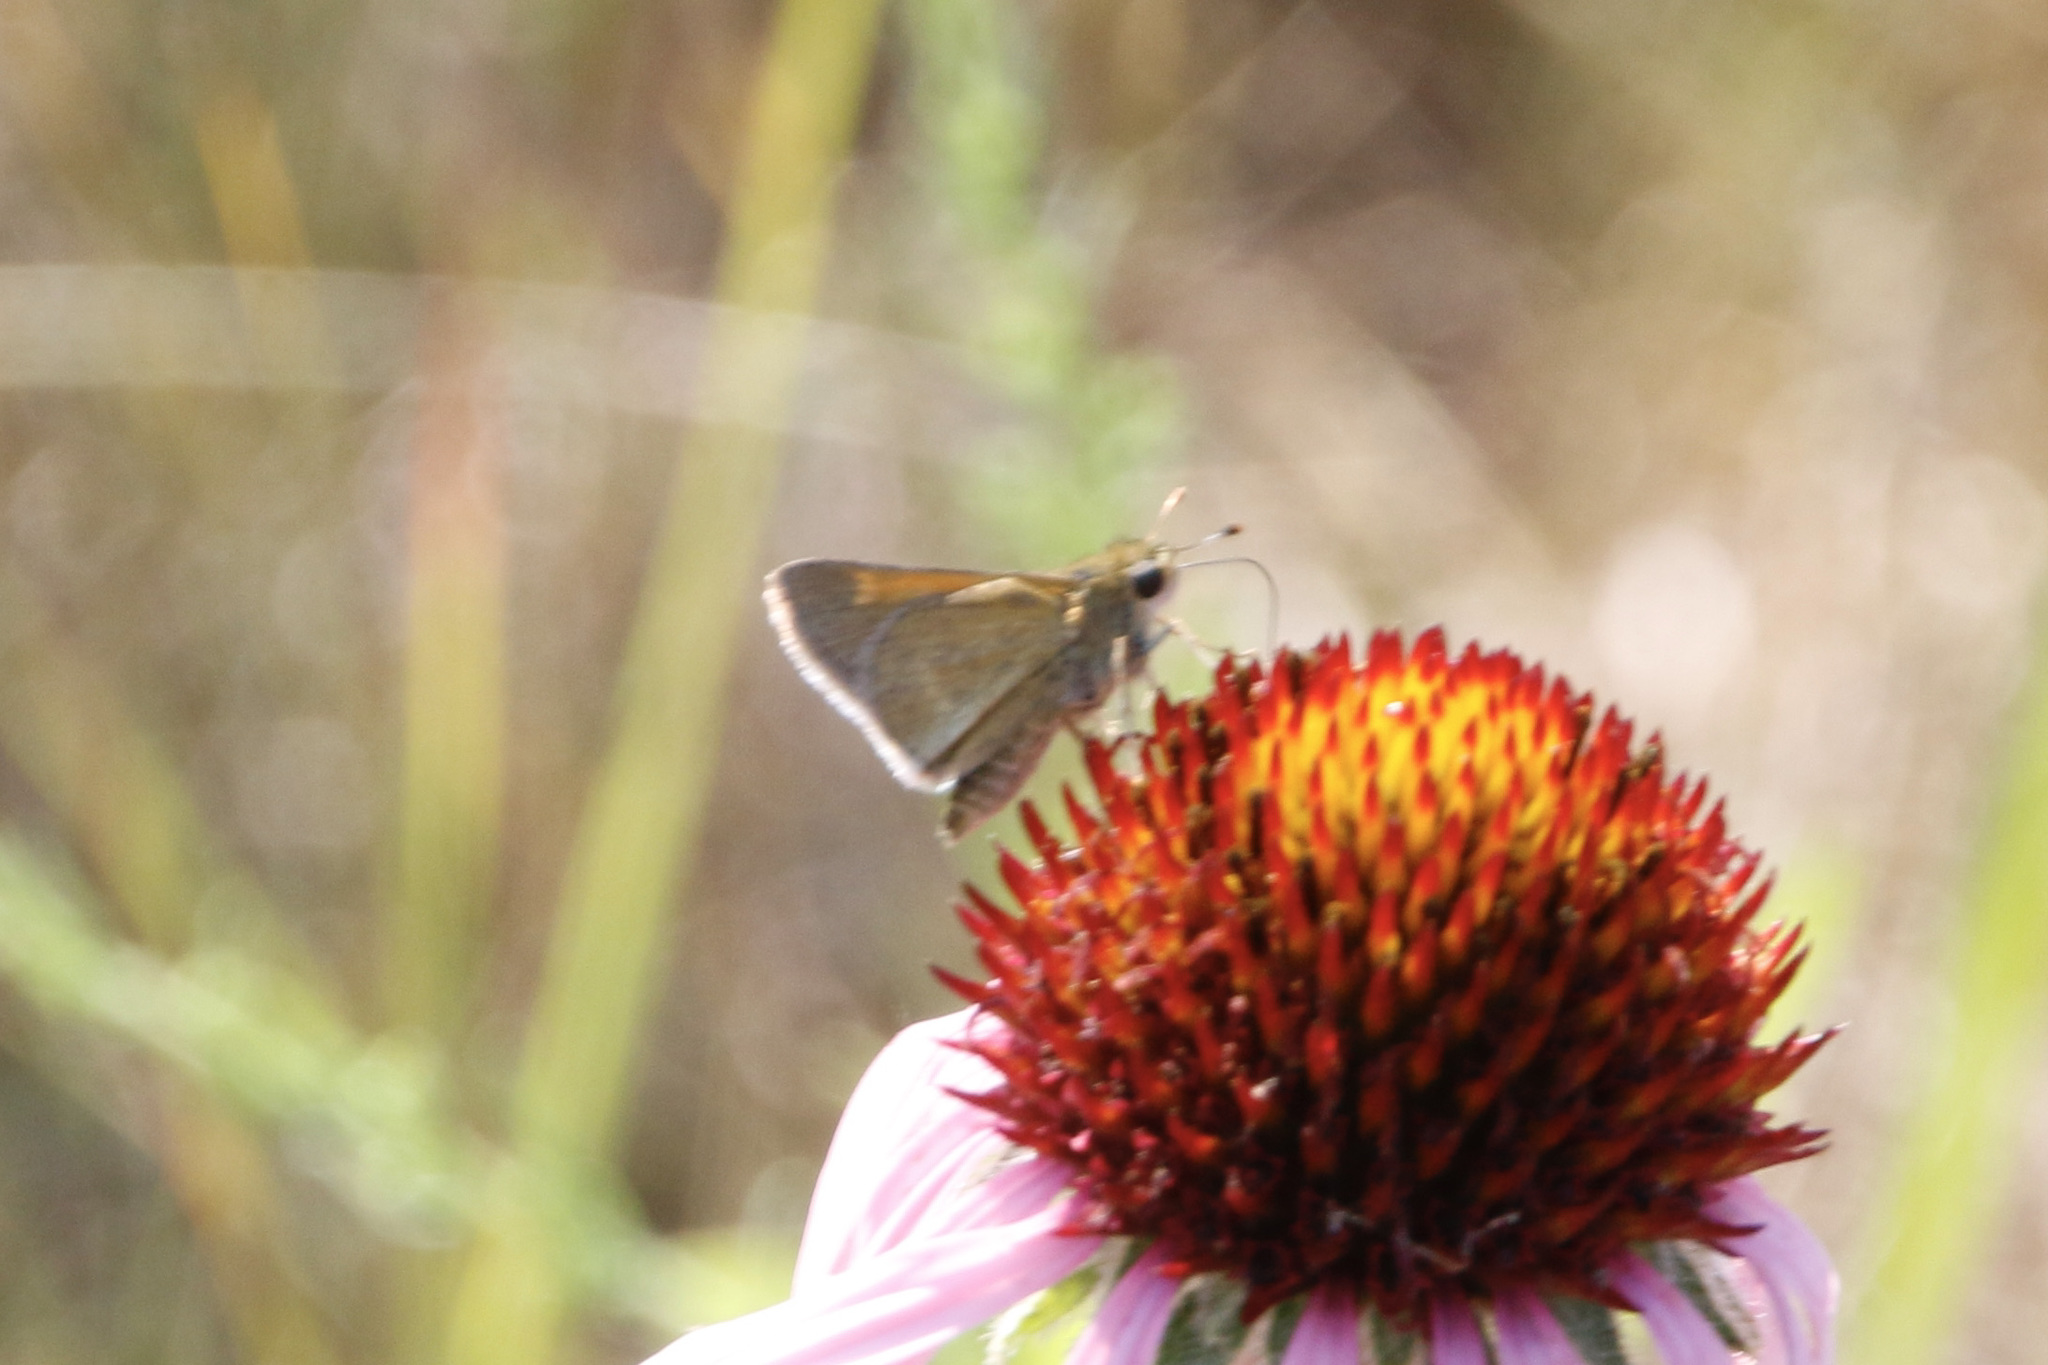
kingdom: Animalia
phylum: Arthropoda
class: Insecta
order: Lepidoptera
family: Hesperiidae
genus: Polites
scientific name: Polites themistocles
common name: Tawny-edged skipper
